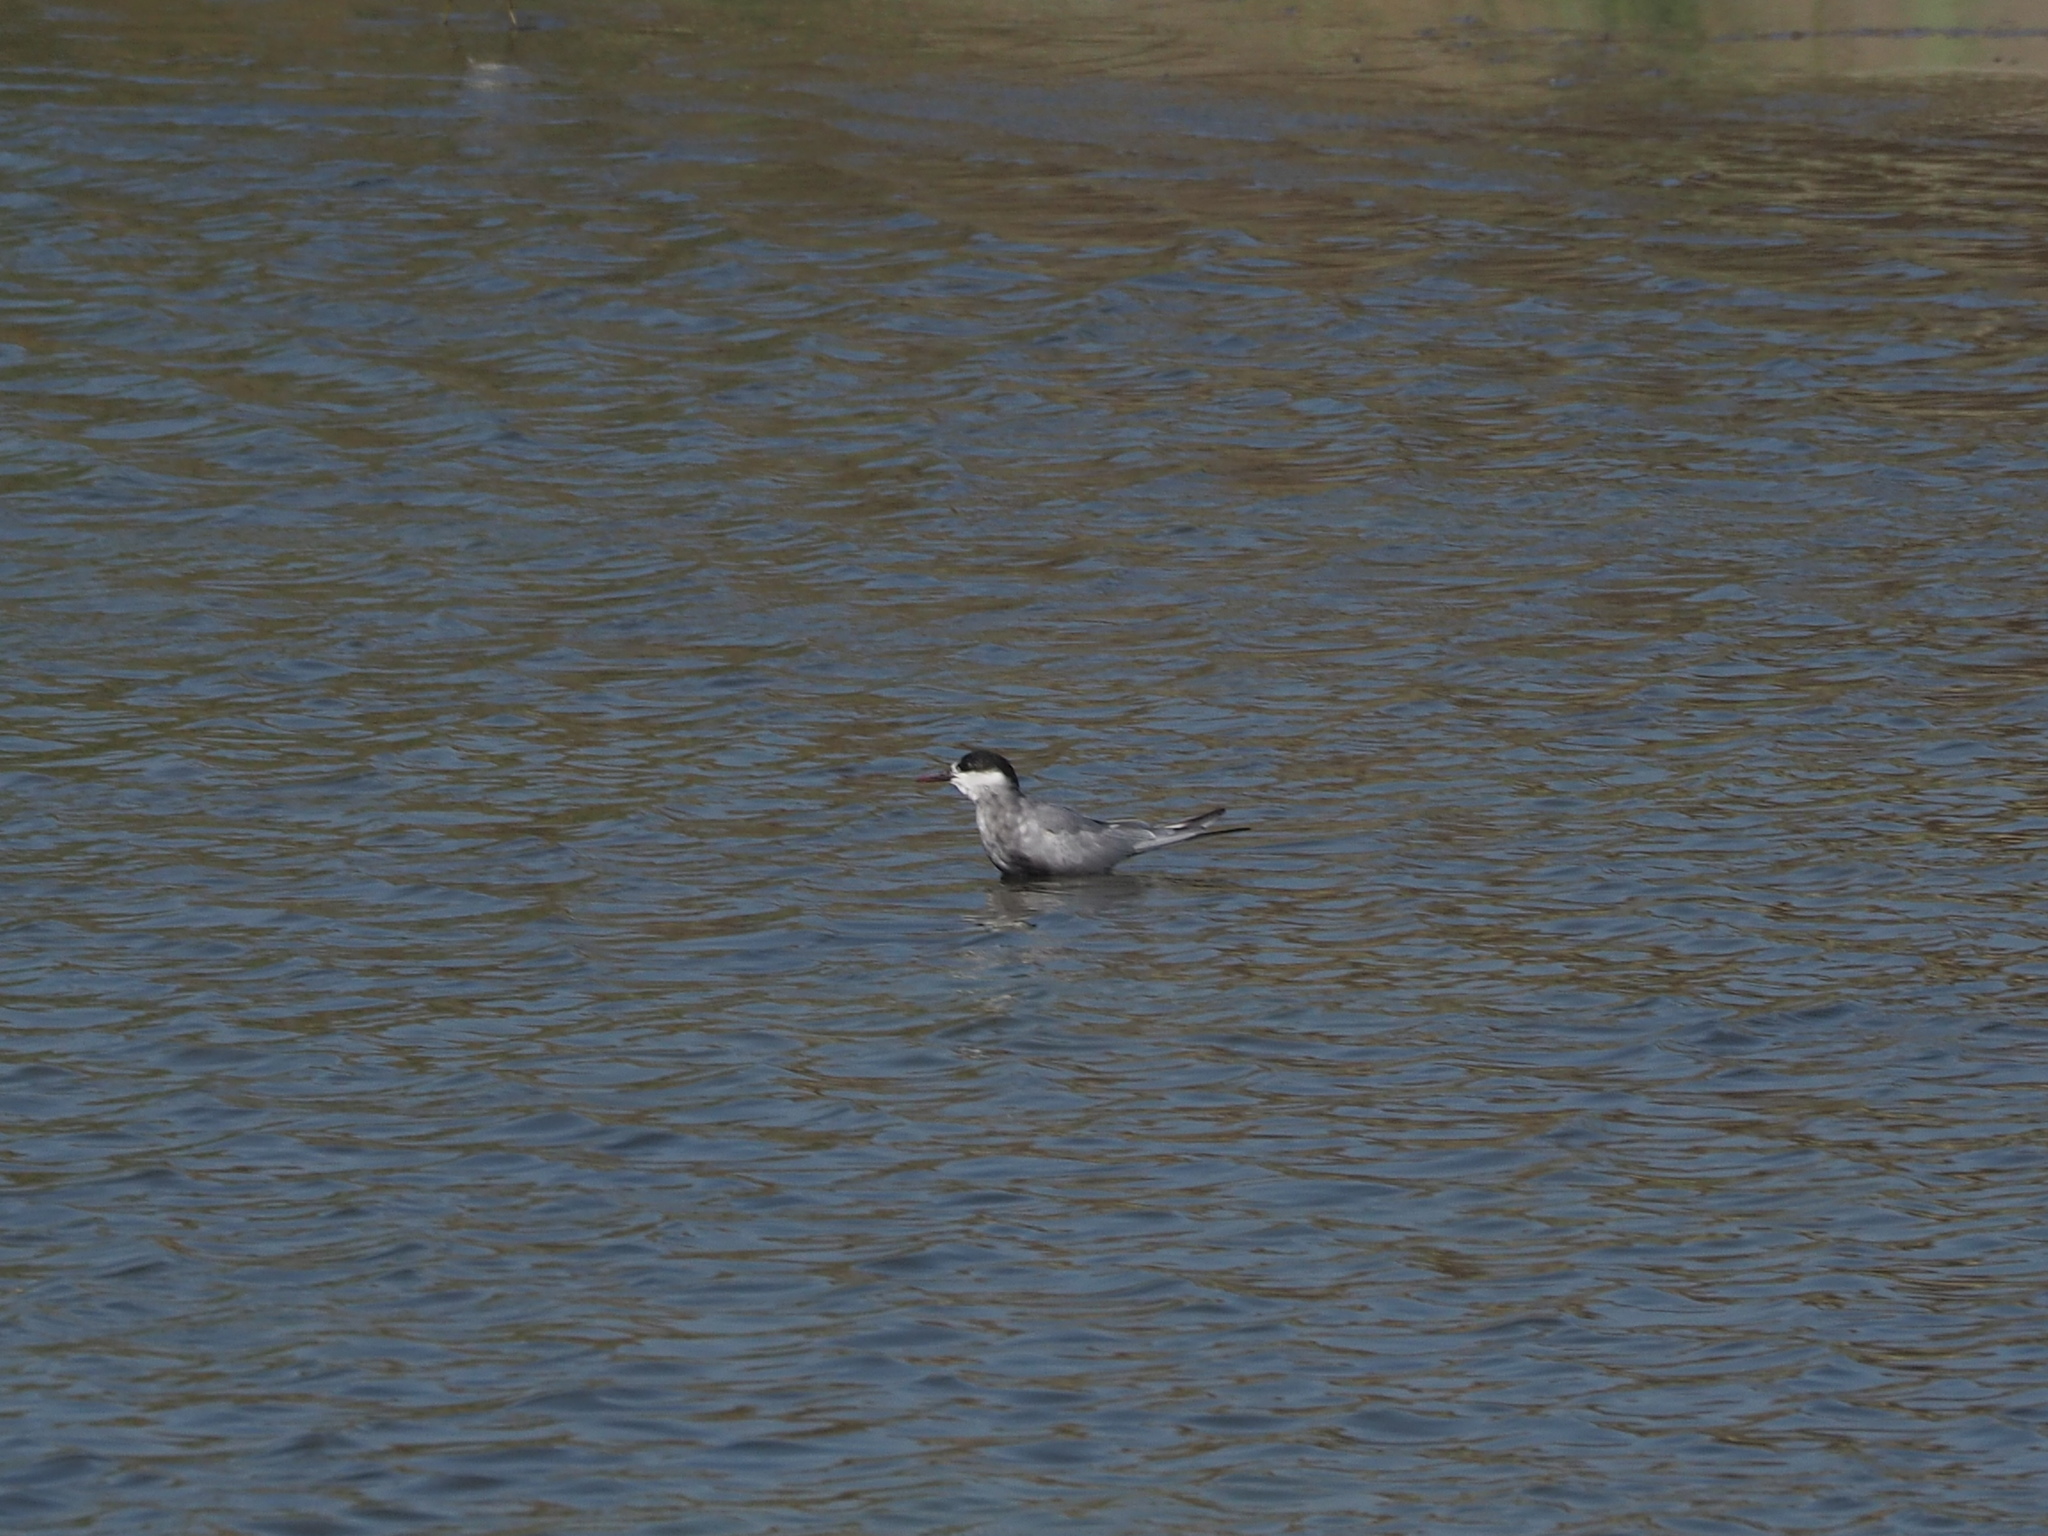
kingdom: Animalia
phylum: Chordata
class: Aves
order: Charadriiformes
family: Laridae
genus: Chlidonias
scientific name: Chlidonias hybrida
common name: Whiskered tern
